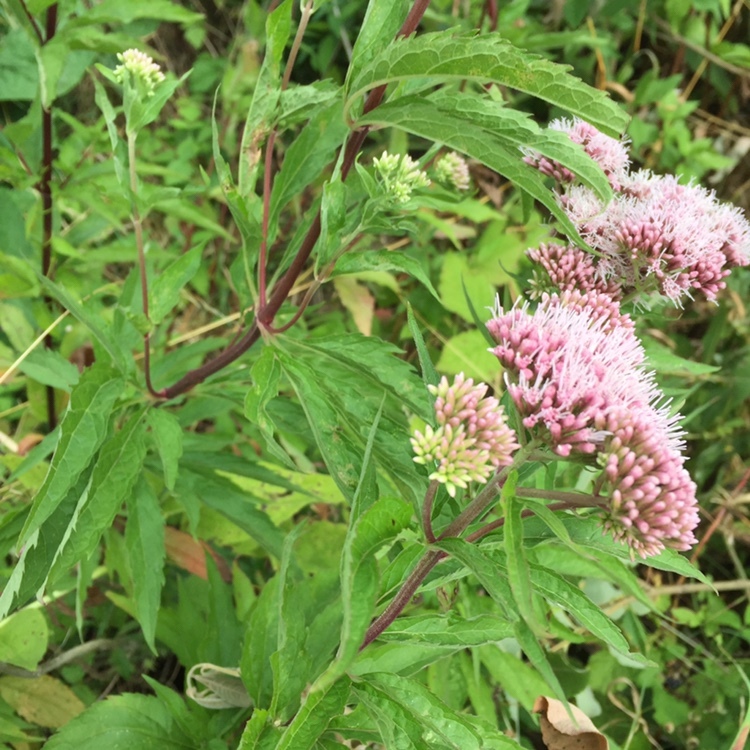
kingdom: Plantae
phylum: Tracheophyta
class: Magnoliopsida
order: Asterales
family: Asteraceae
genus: Eupatorium
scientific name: Eupatorium cannabinum
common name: Hemp-agrimony
